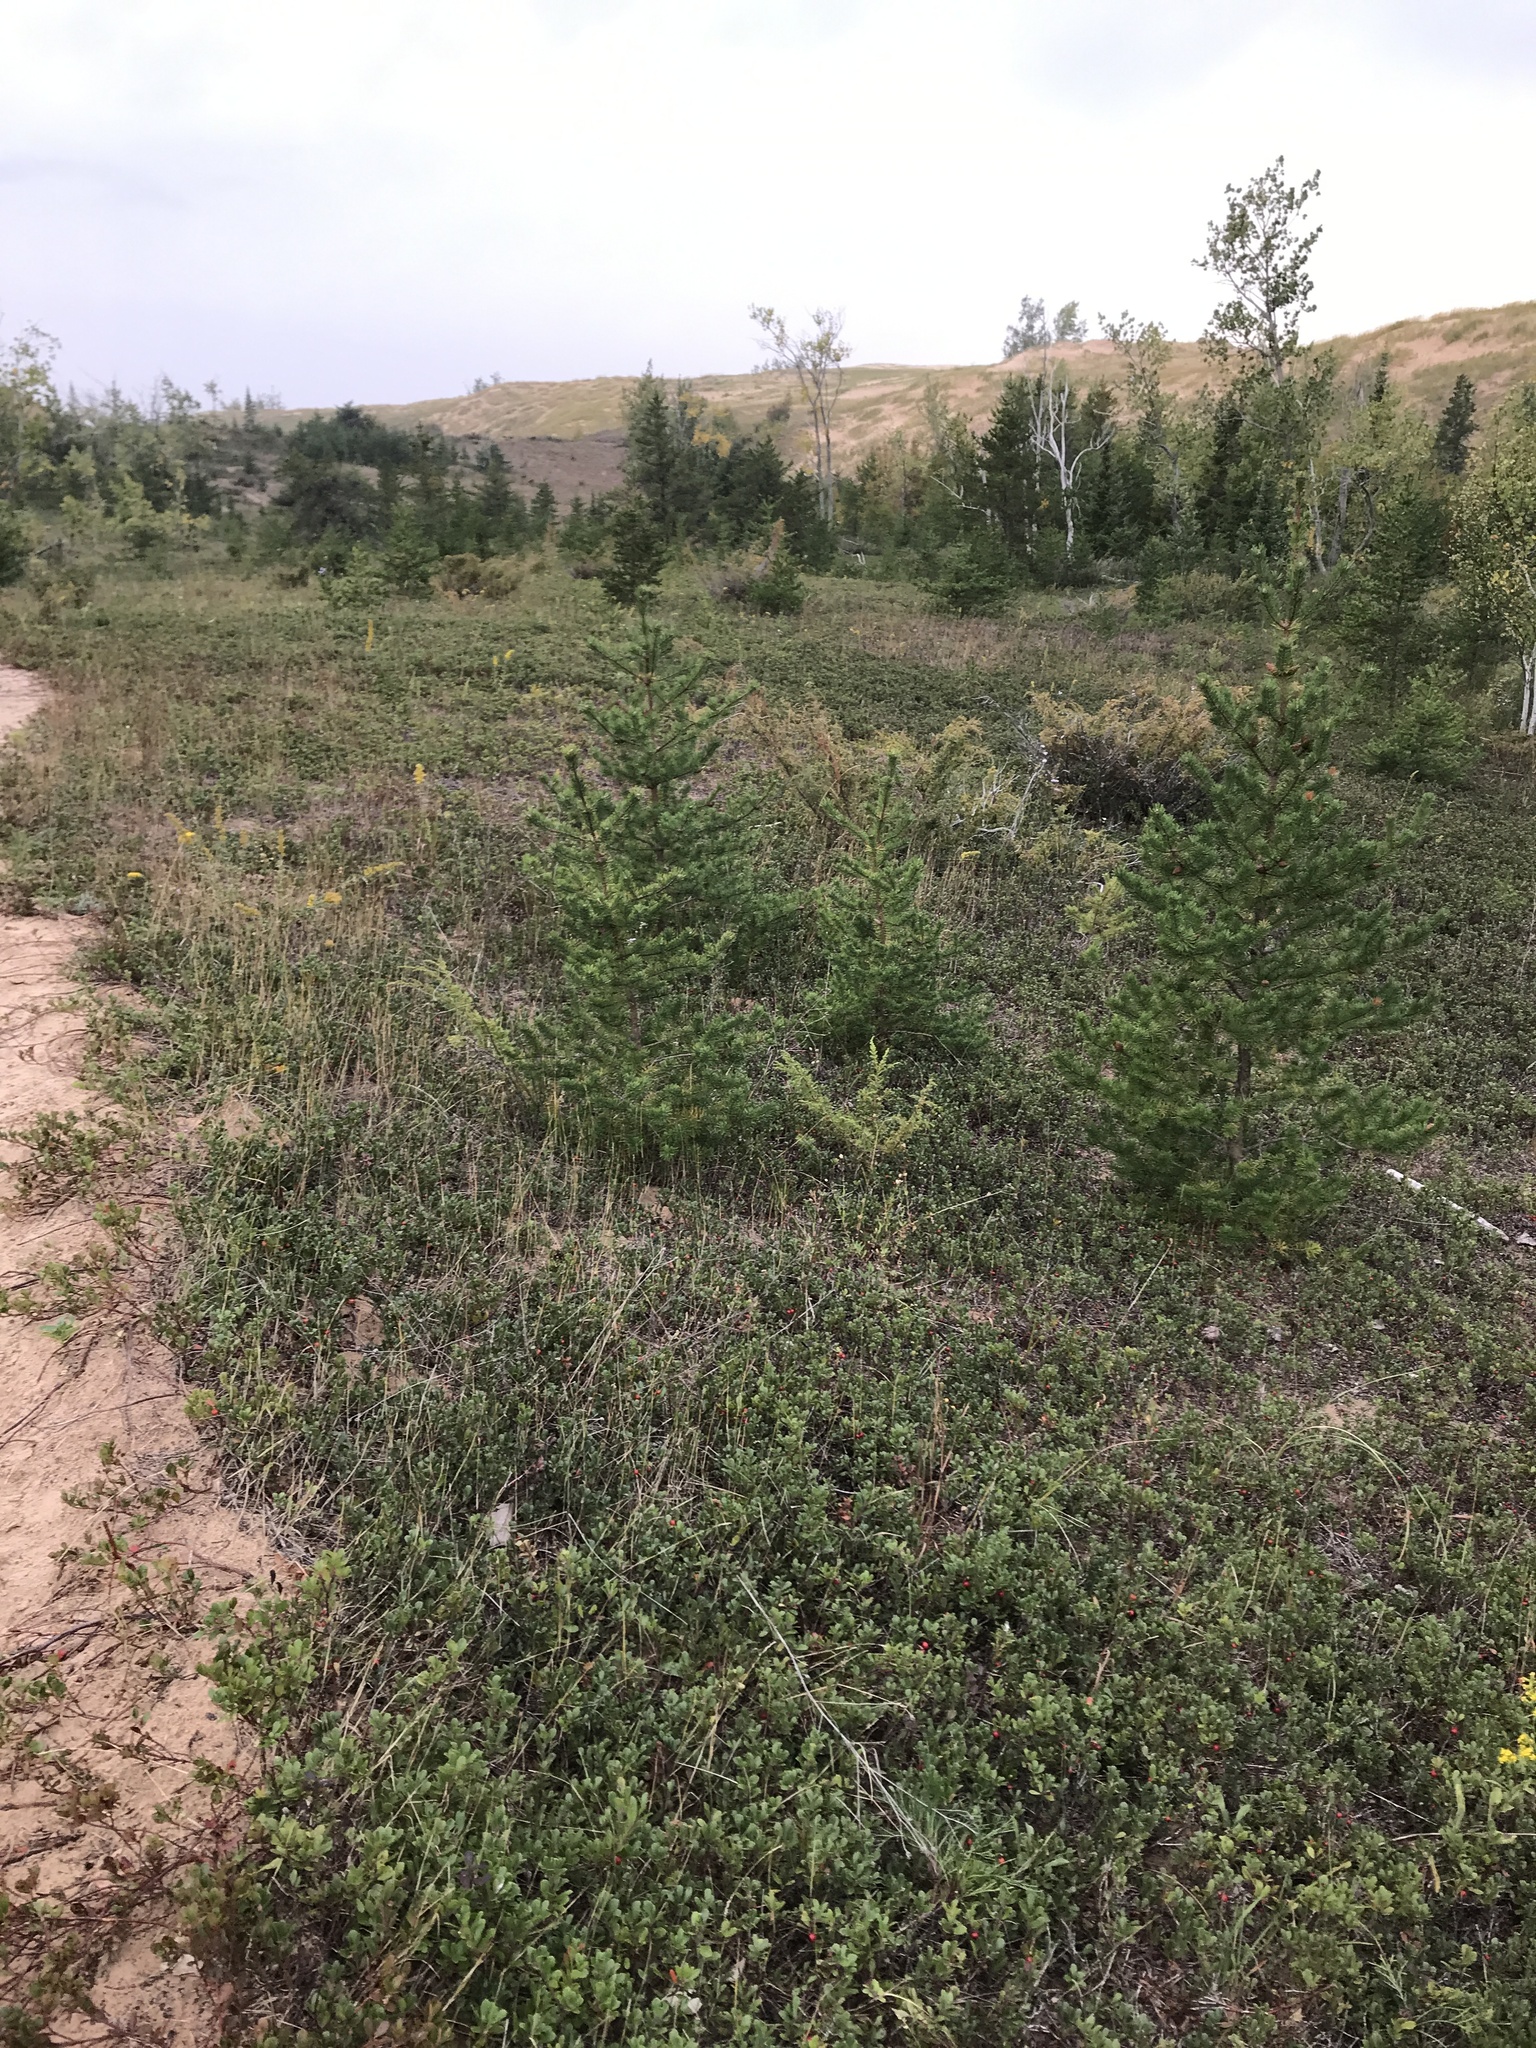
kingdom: Plantae
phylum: Tracheophyta
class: Magnoliopsida
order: Ericales
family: Ericaceae
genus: Arctostaphylos
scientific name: Arctostaphylos uva-ursi
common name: Bearberry
